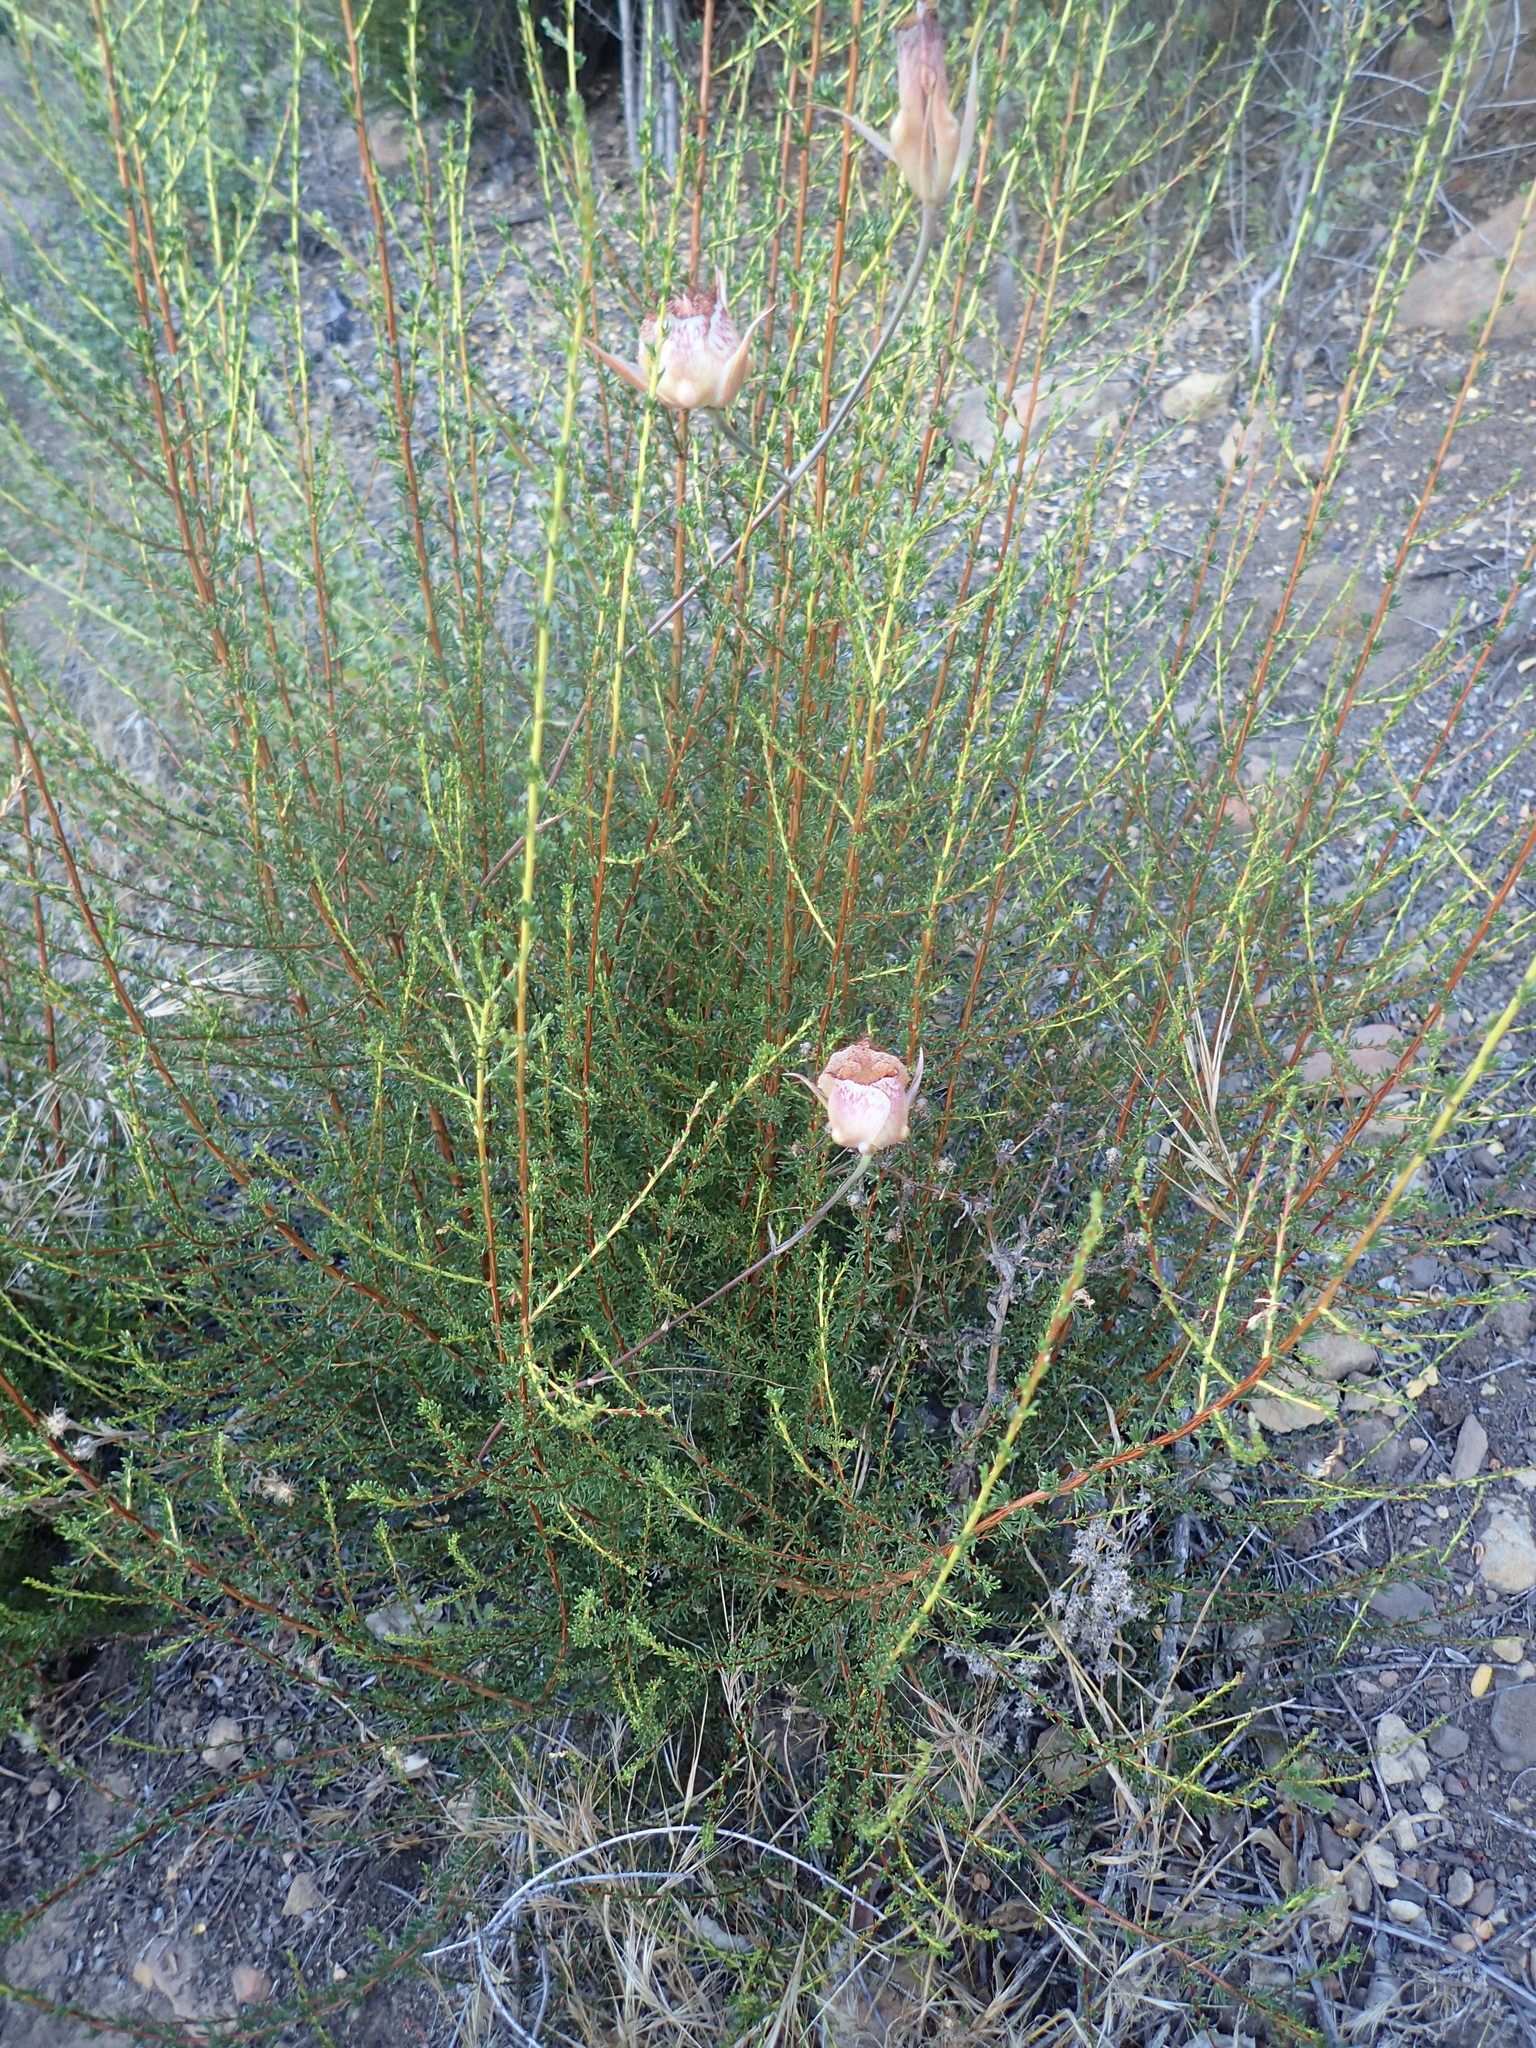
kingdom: Plantae
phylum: Tracheophyta
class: Liliopsida
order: Liliales
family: Liliaceae
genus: Calochortus
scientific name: Calochortus fimbriatus
